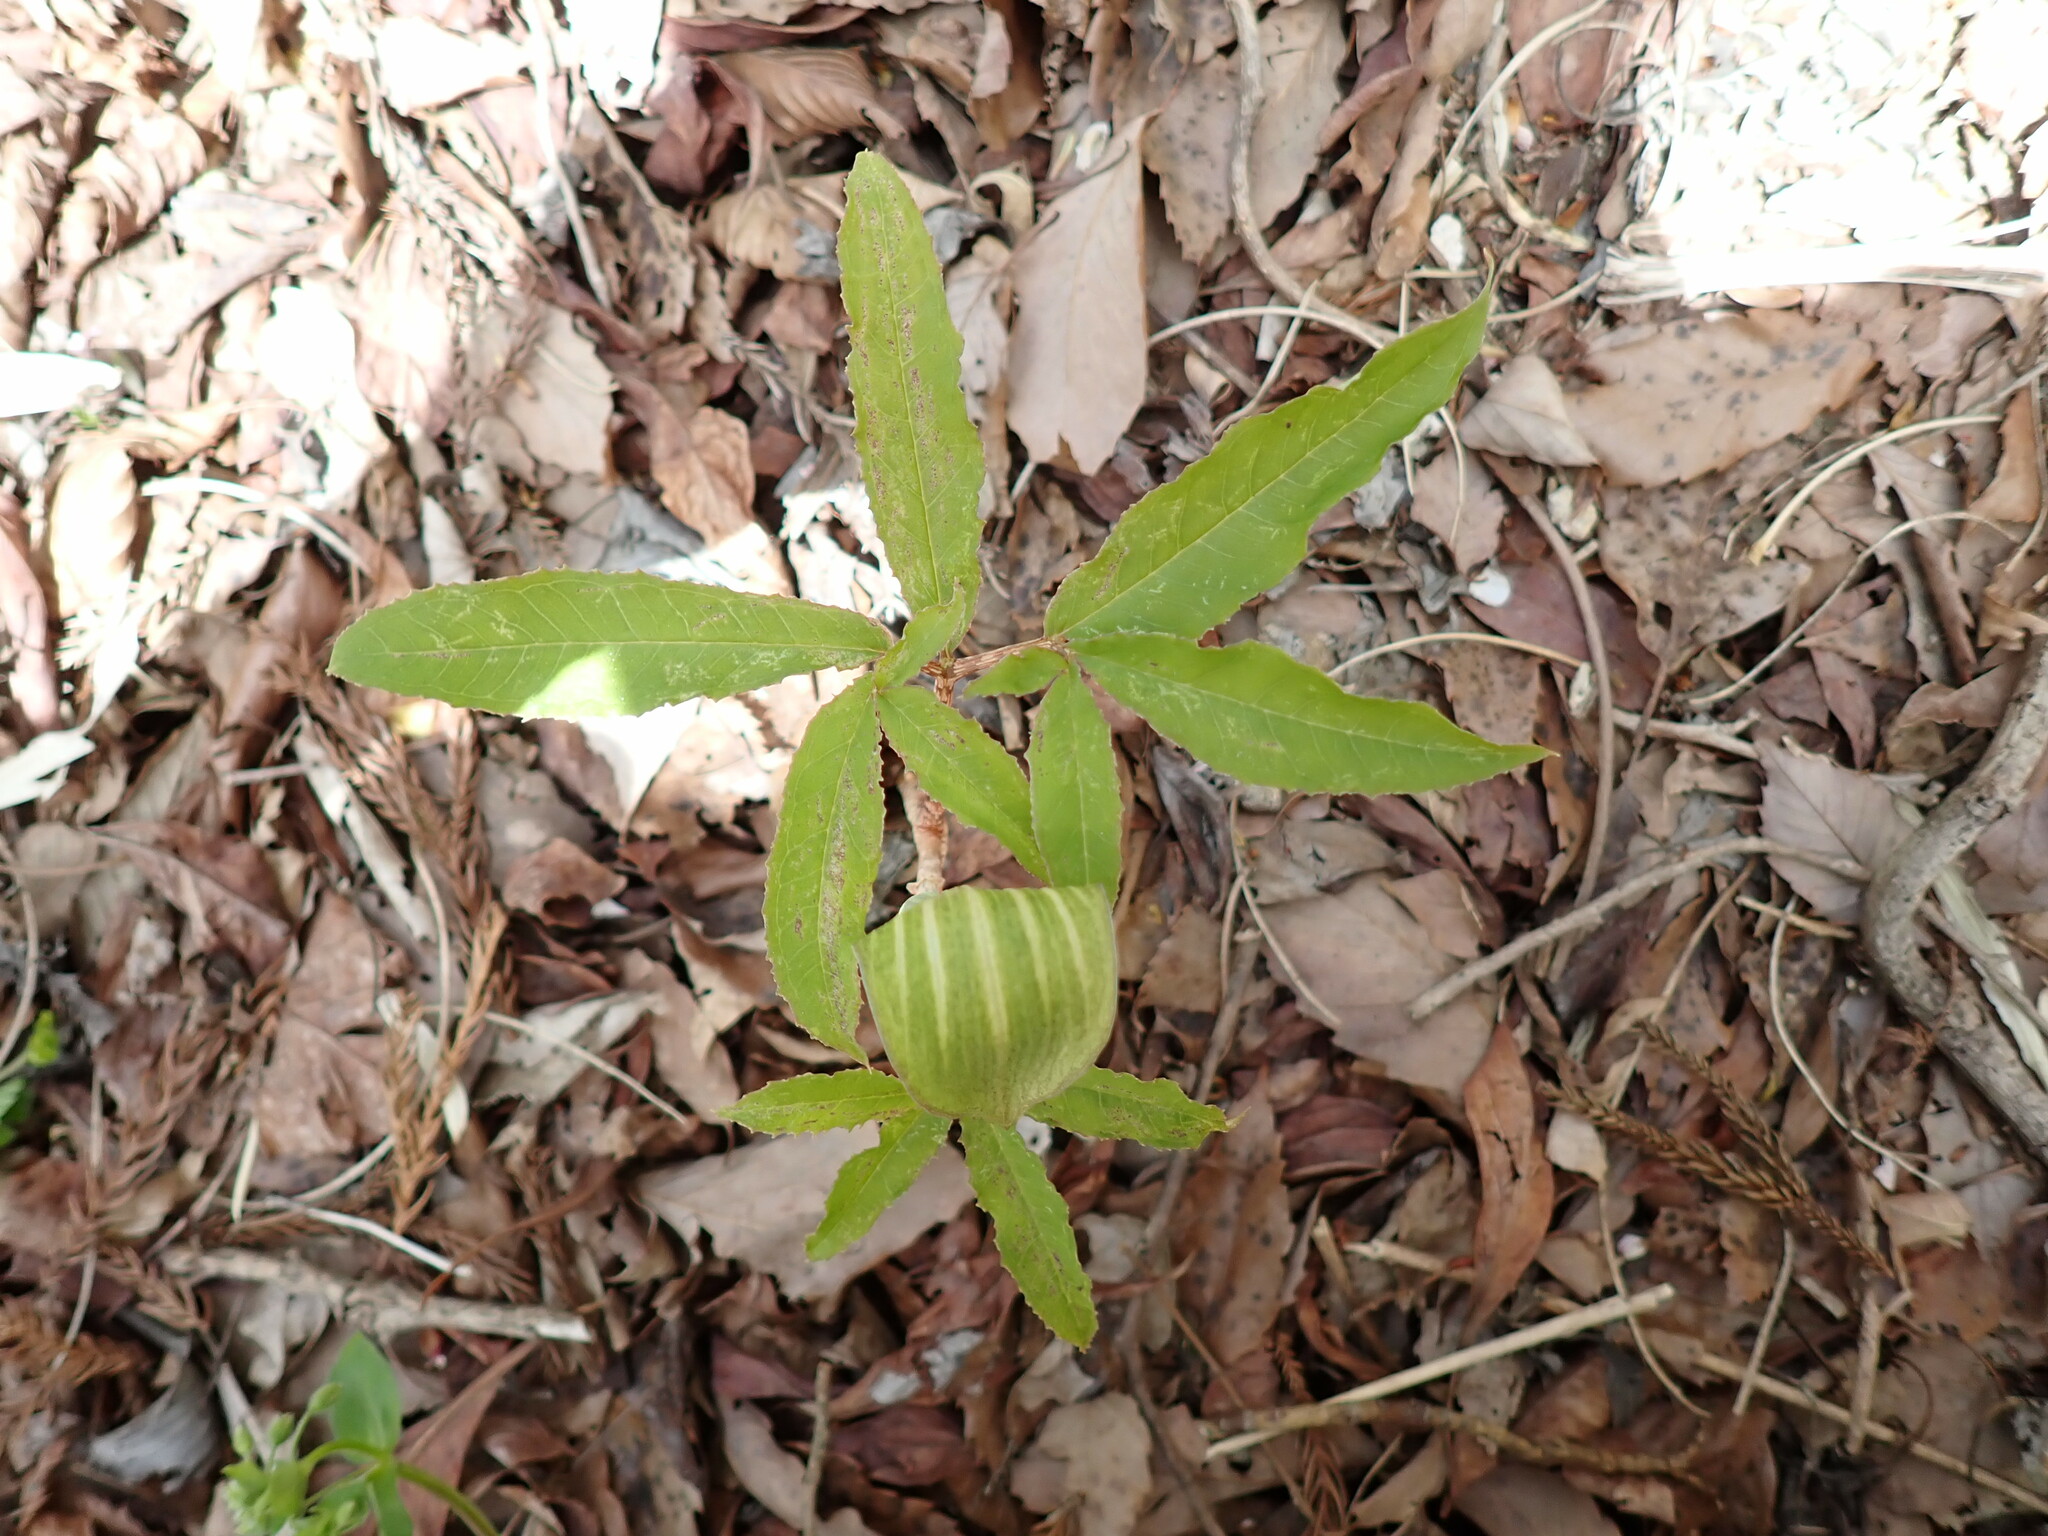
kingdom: Plantae
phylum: Tracheophyta
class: Liliopsida
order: Alismatales
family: Araceae
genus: Arisaema
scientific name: Arisaema japonicum
